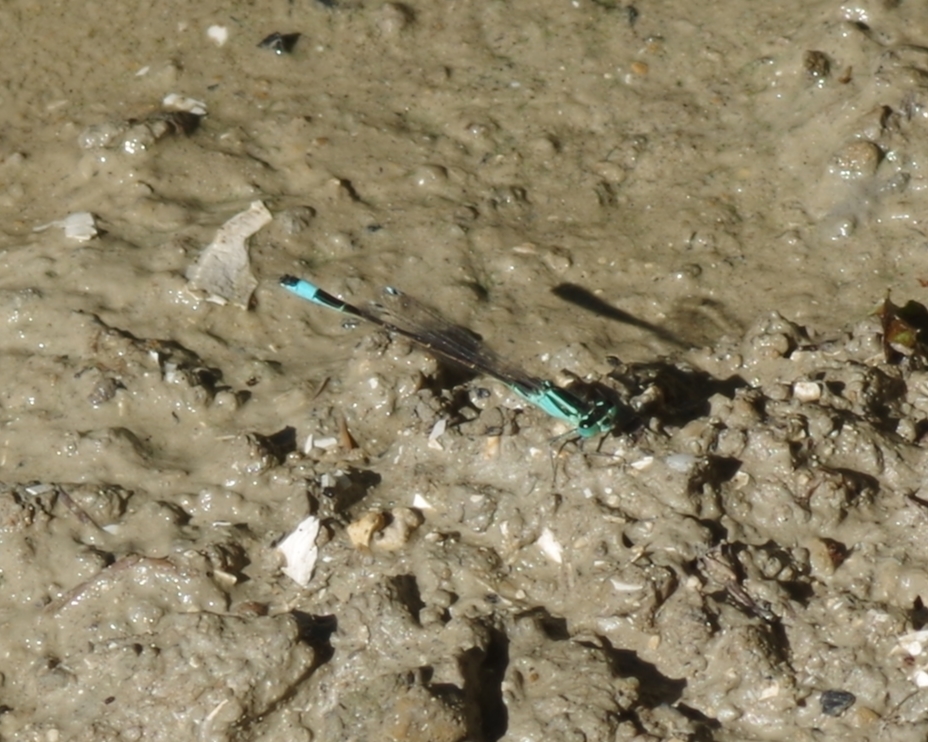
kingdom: Animalia
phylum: Arthropoda
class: Insecta
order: Odonata
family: Coenagrionidae
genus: Ischnura
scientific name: Ischnura elegans
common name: Blue-tailed damselfly
